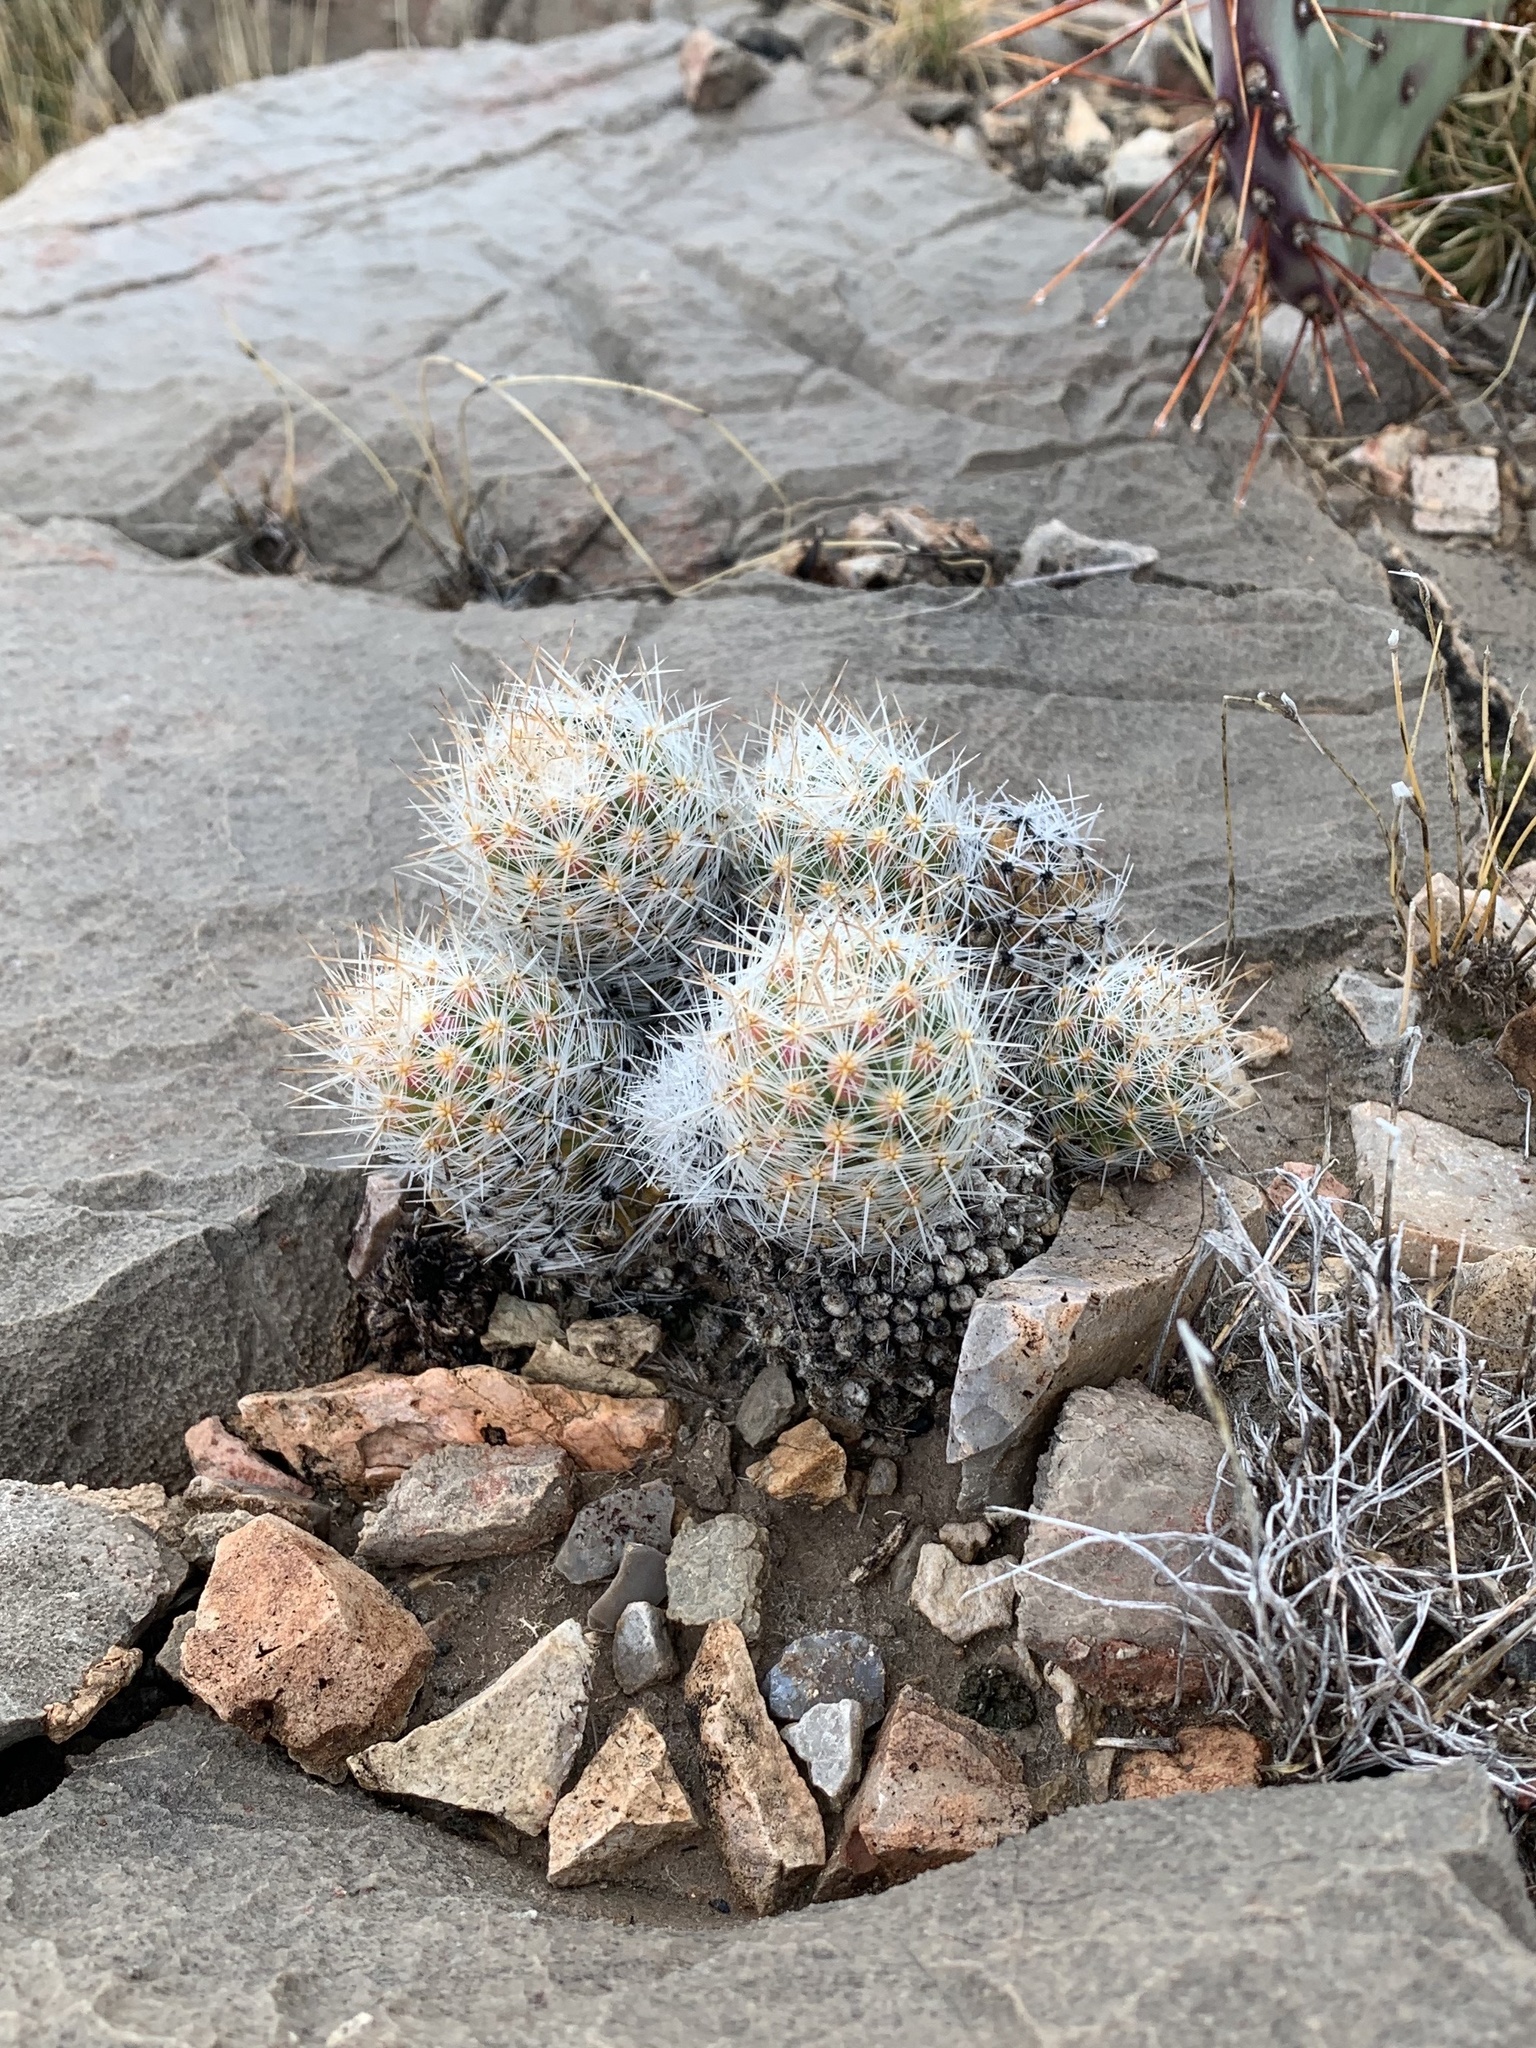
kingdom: Plantae
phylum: Tracheophyta
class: Magnoliopsida
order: Caryophyllales
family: Cactaceae
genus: Pelecyphora
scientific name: Pelecyphora tuberculosa
